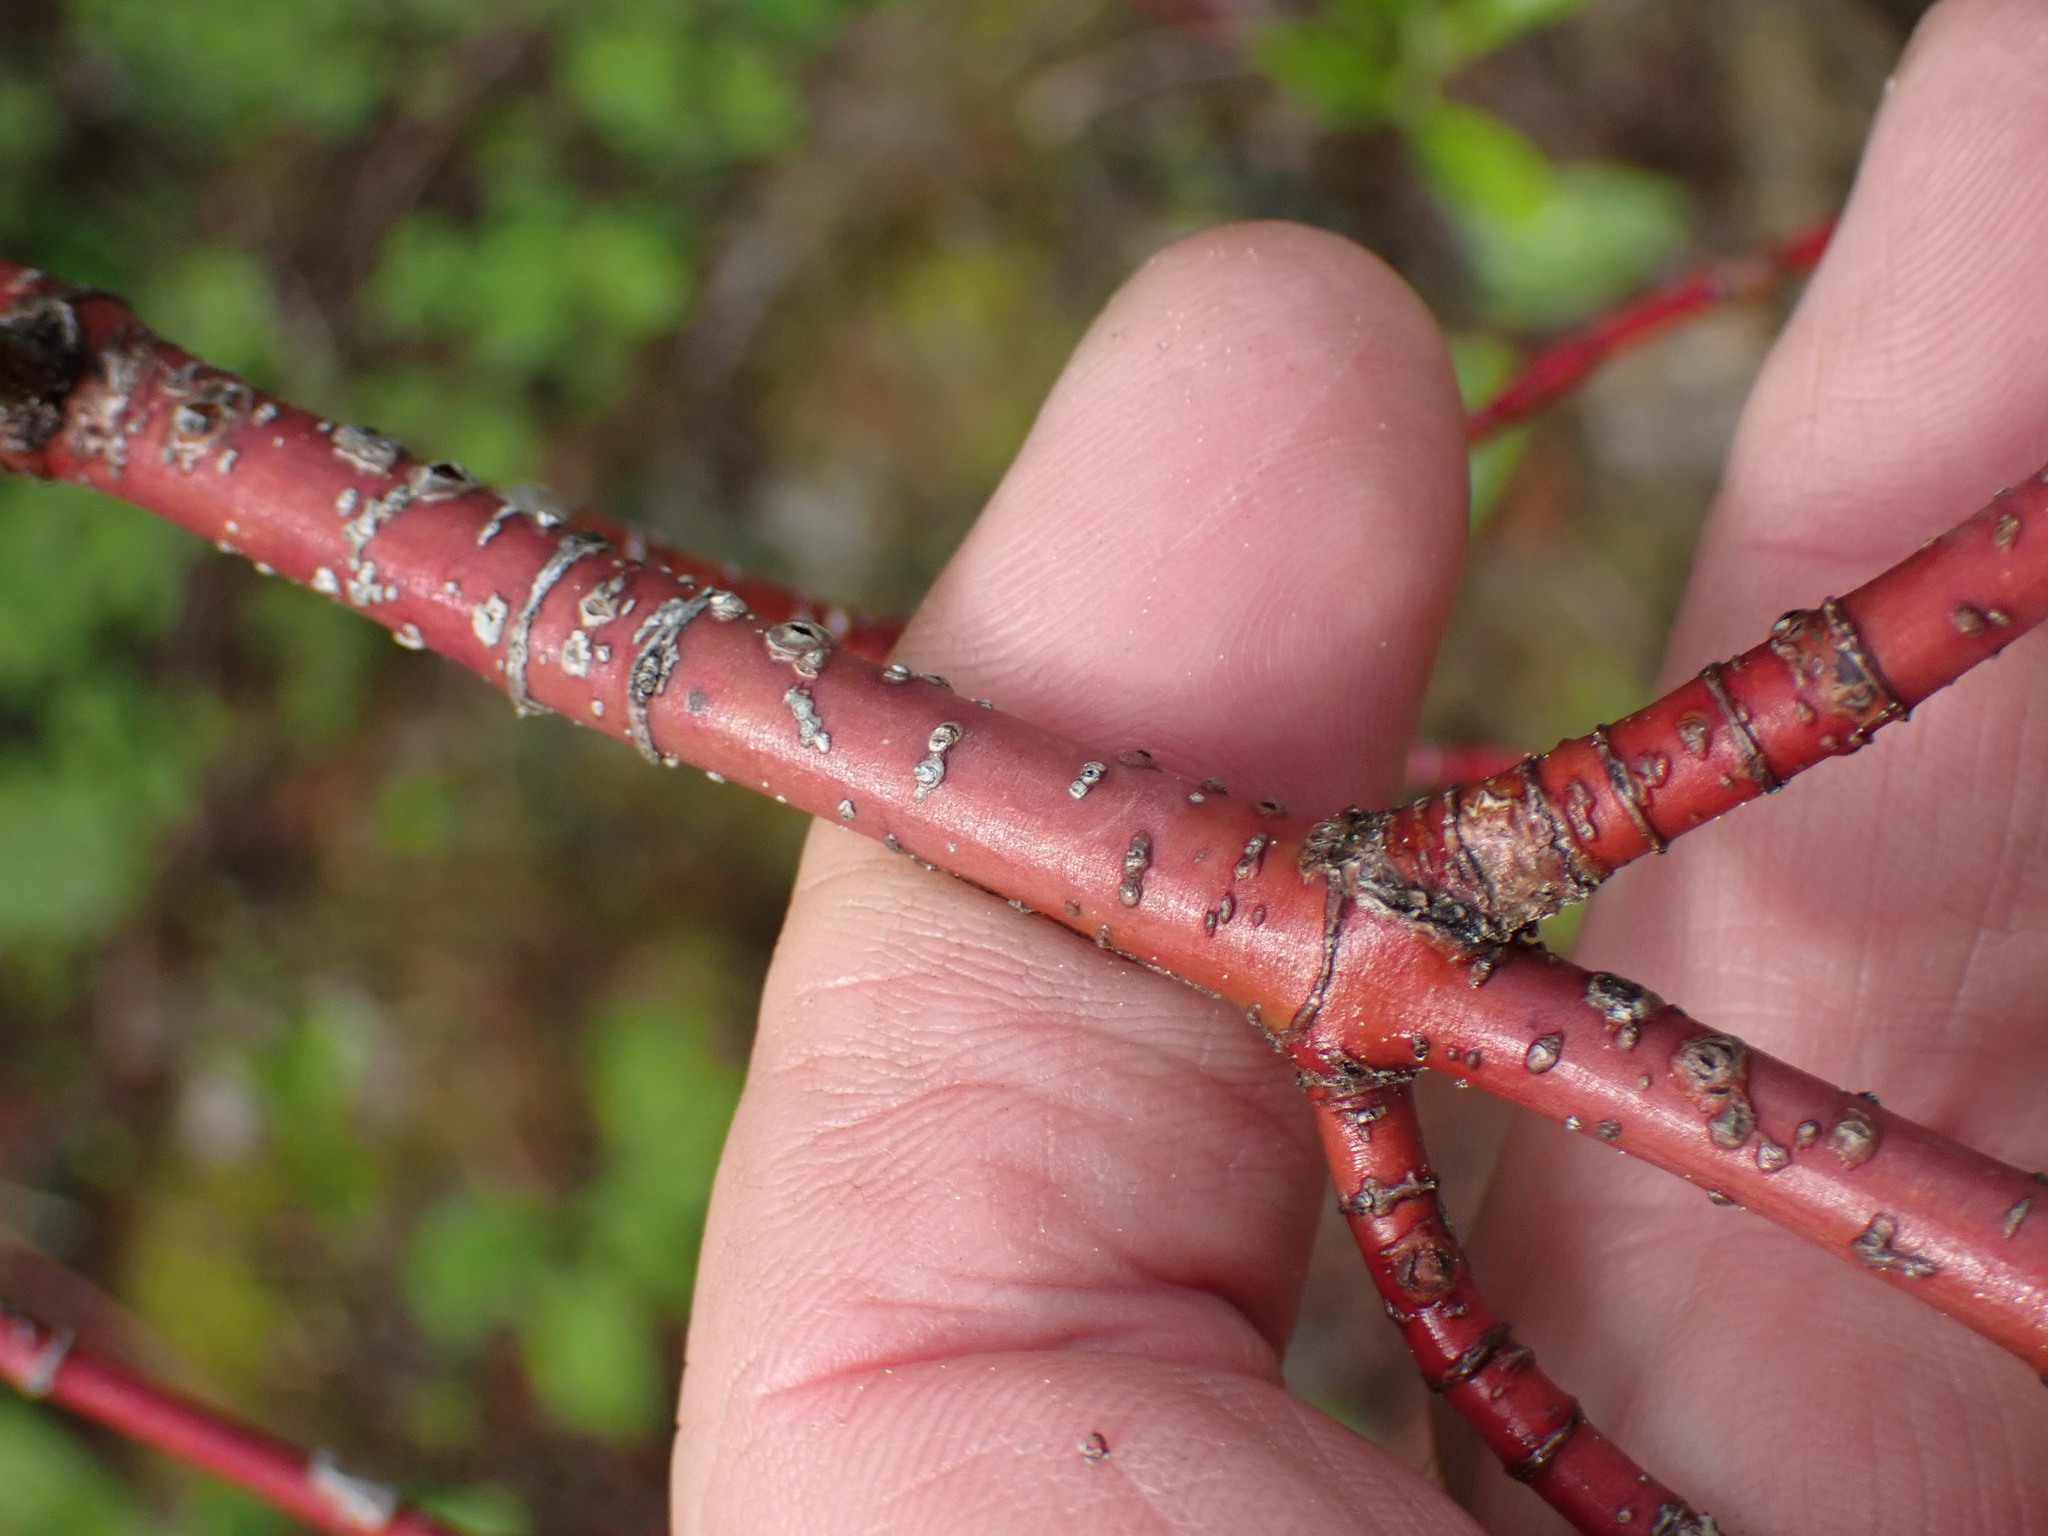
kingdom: Plantae
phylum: Tracheophyta
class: Magnoliopsida
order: Cornales
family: Cornaceae
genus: Cornus
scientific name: Cornus sericea
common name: Red-osier dogwood
